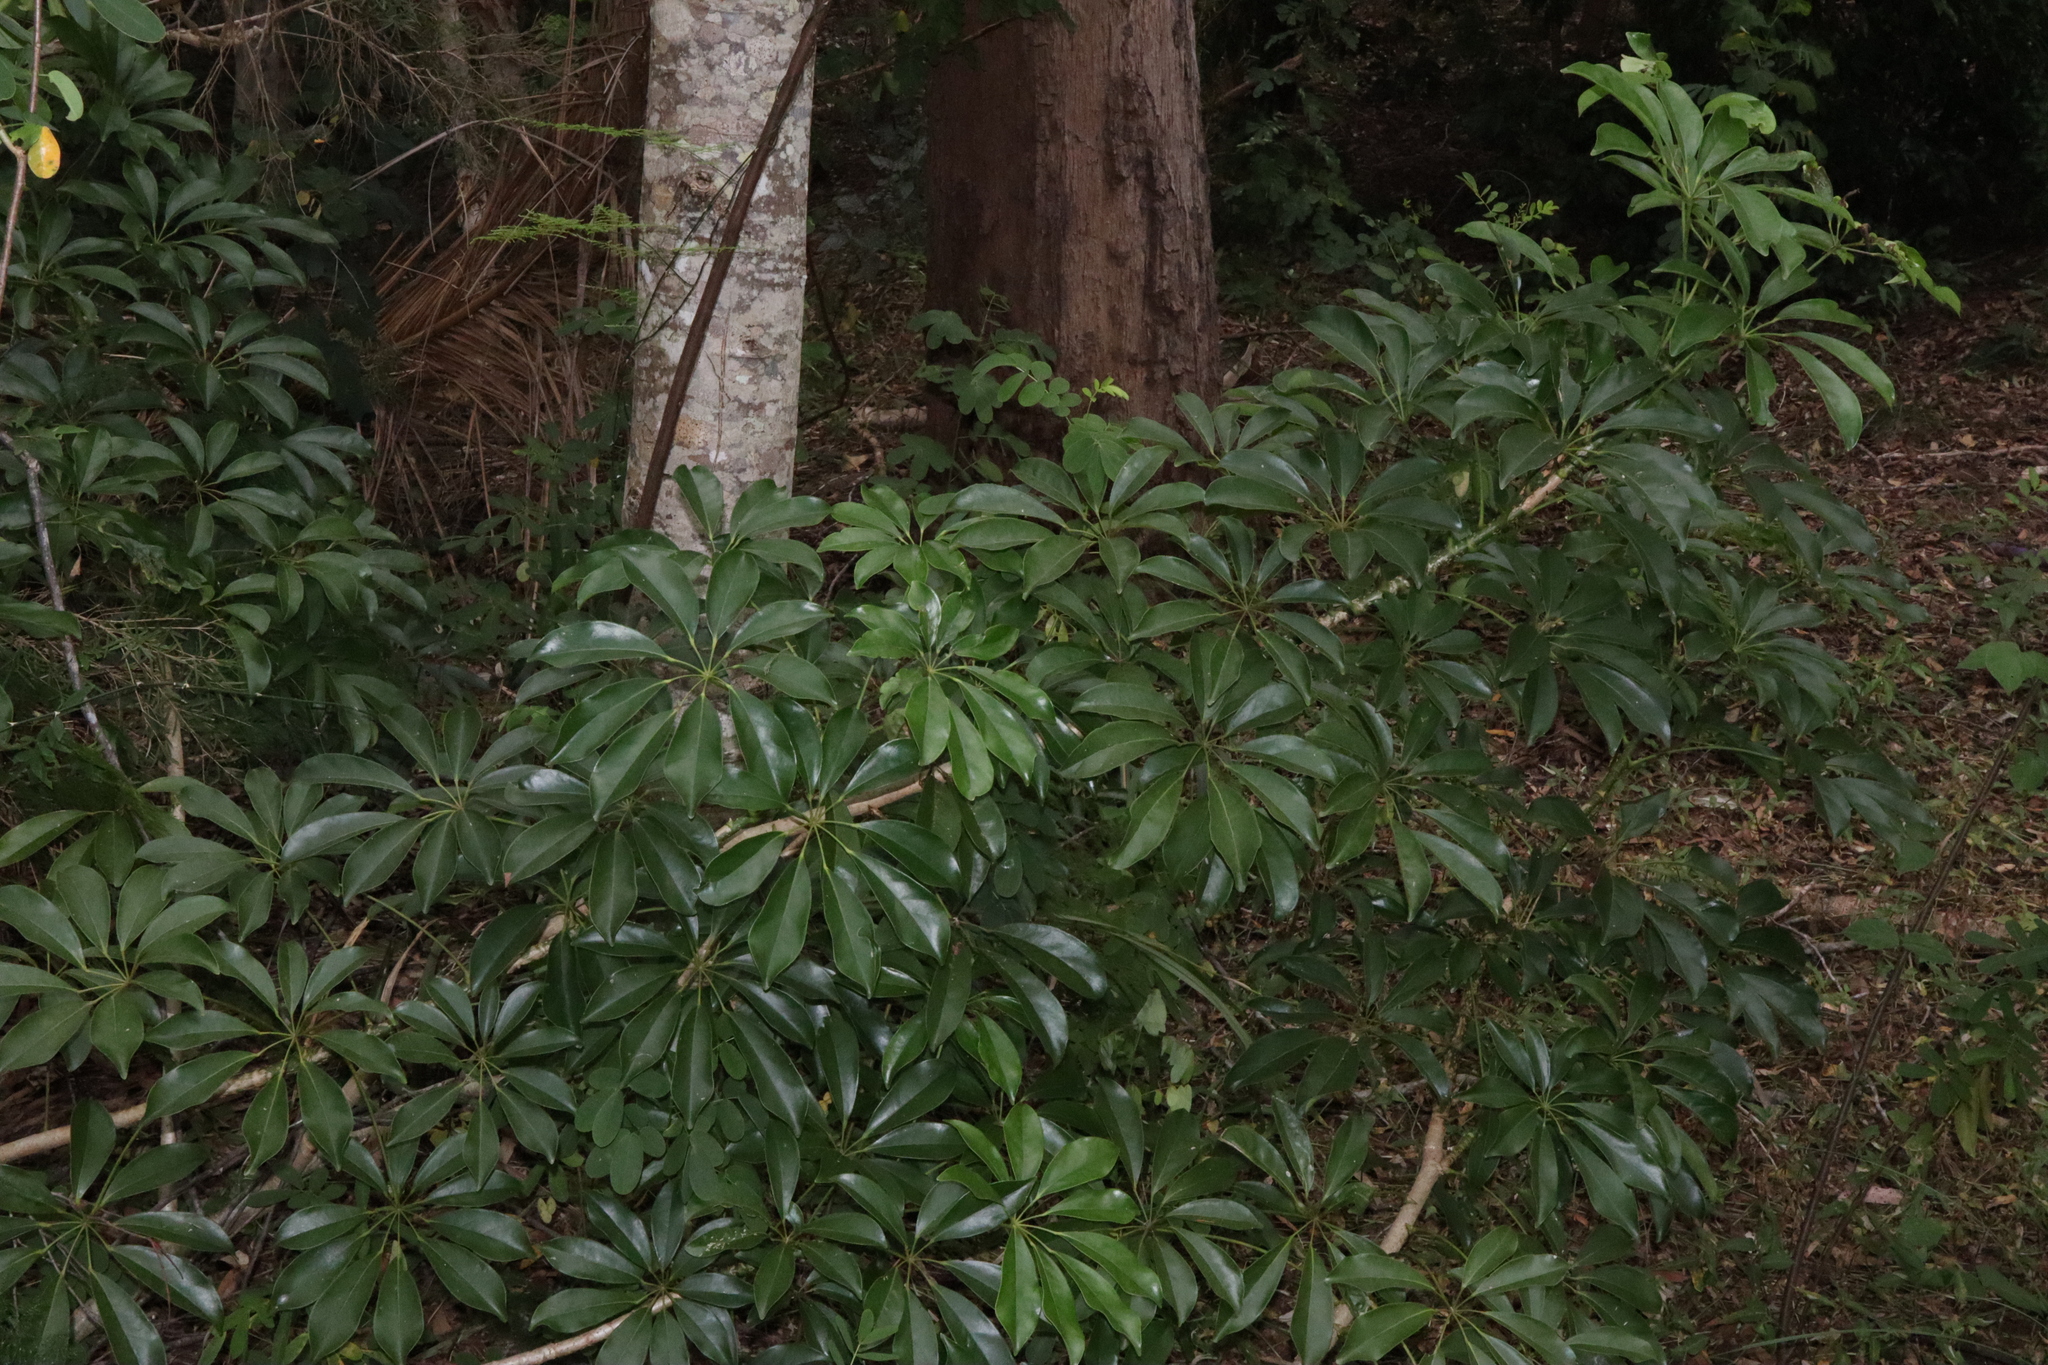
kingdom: Plantae
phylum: Tracheophyta
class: Magnoliopsida
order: Apiales
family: Araliaceae
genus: Heptapleurum
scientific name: Heptapleurum arboricola
